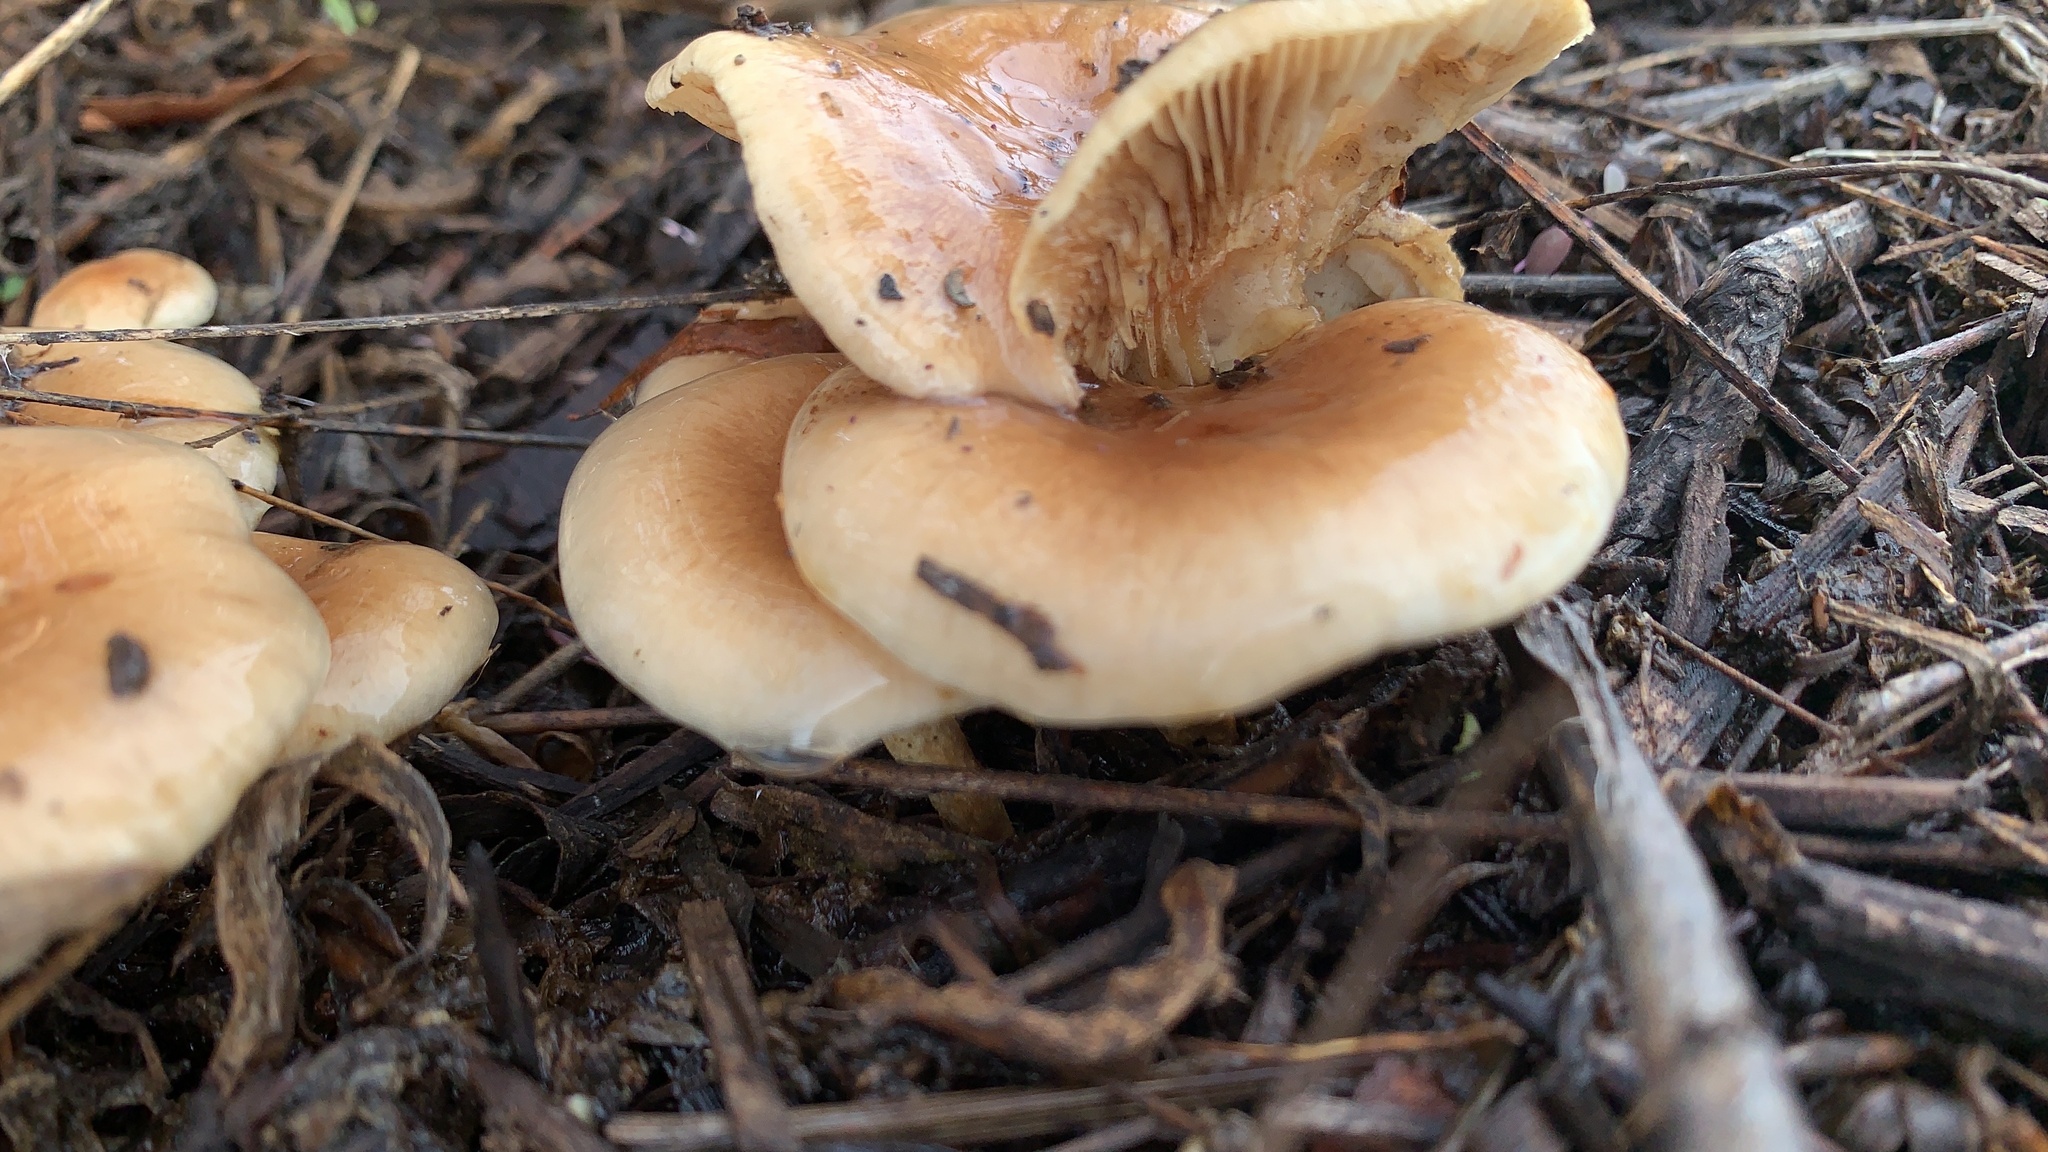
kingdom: Fungi
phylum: Basidiomycota
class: Agaricomycetes
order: Agaricales
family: Strophariaceae
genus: Pholiota
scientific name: Pholiota spumosa
